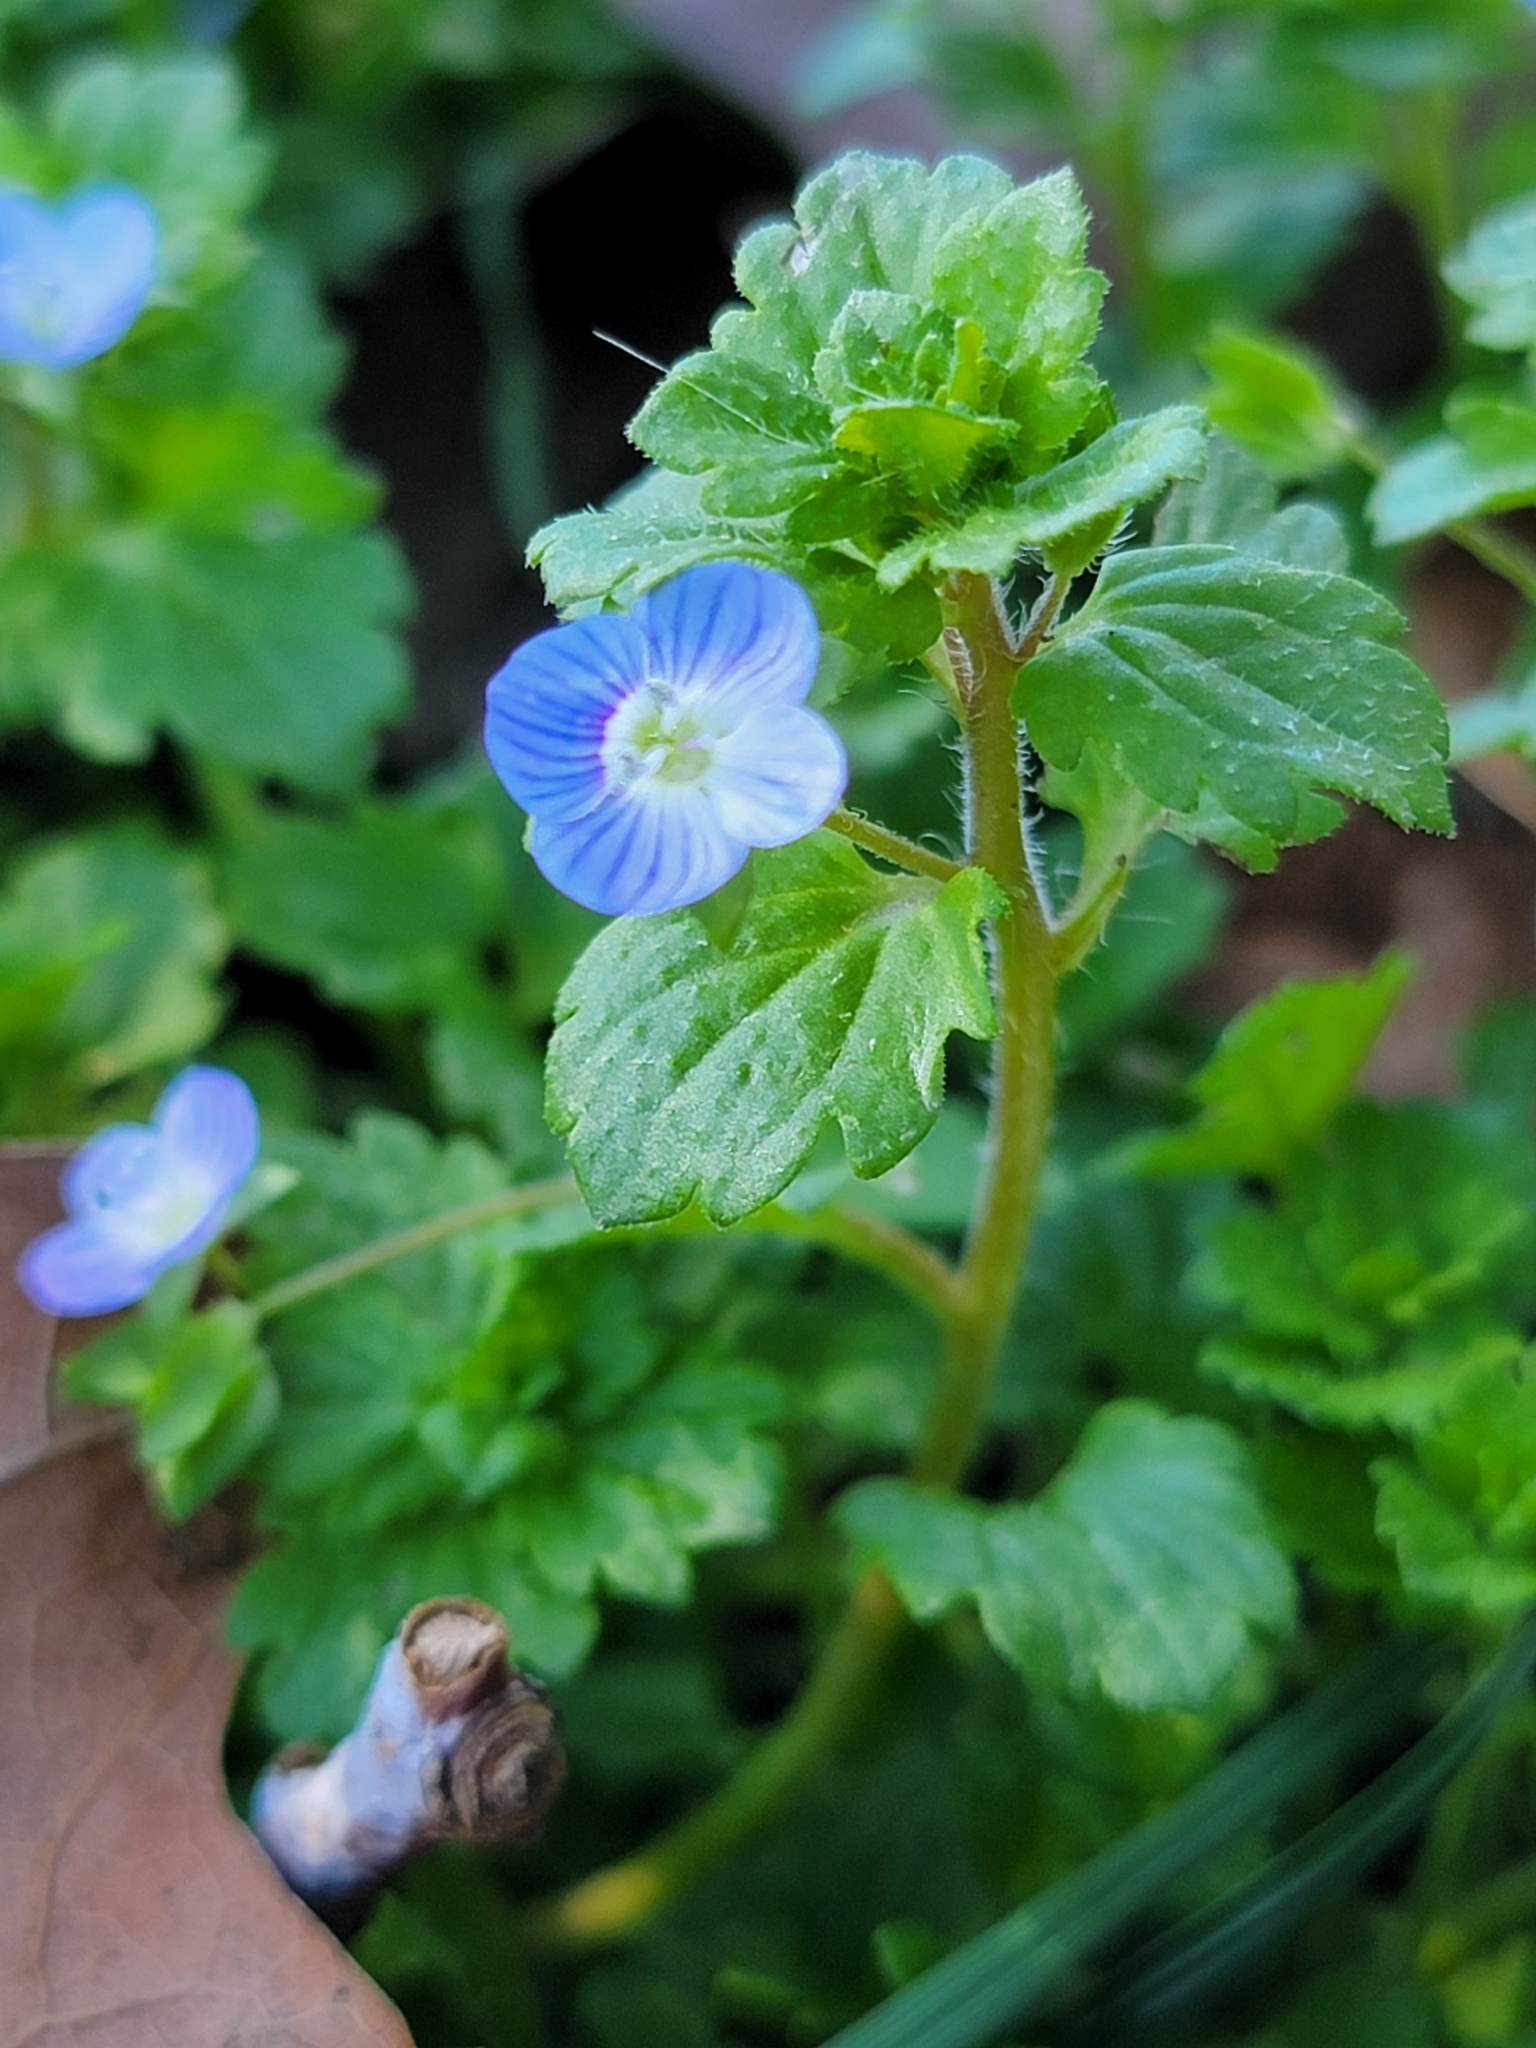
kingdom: Plantae
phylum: Tracheophyta
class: Magnoliopsida
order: Lamiales
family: Plantaginaceae
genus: Veronica
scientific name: Veronica persica
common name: Common field-speedwell
